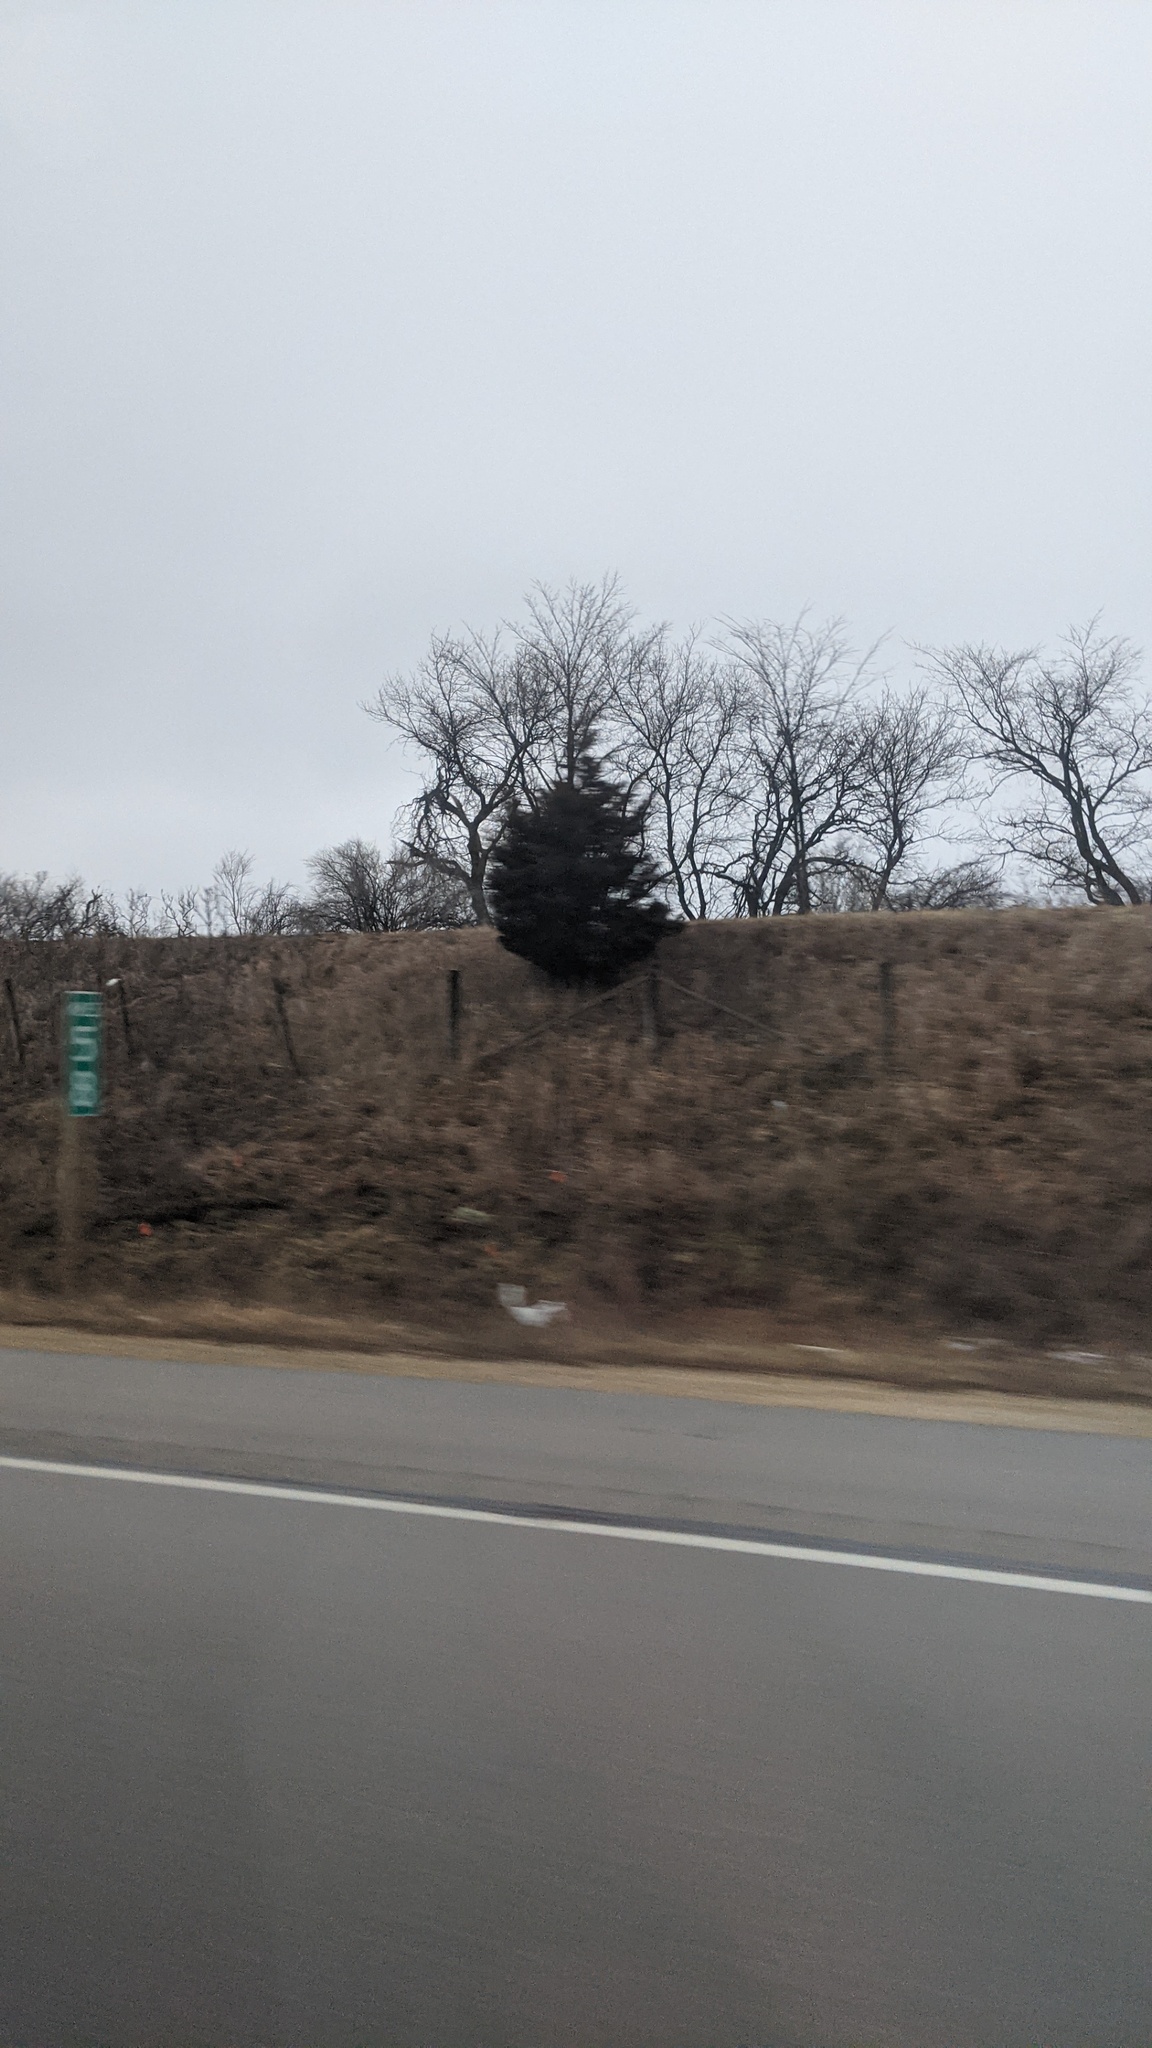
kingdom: Plantae
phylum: Tracheophyta
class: Pinopsida
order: Pinales
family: Cupressaceae
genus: Juniperus
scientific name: Juniperus virginiana
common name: Red juniper
